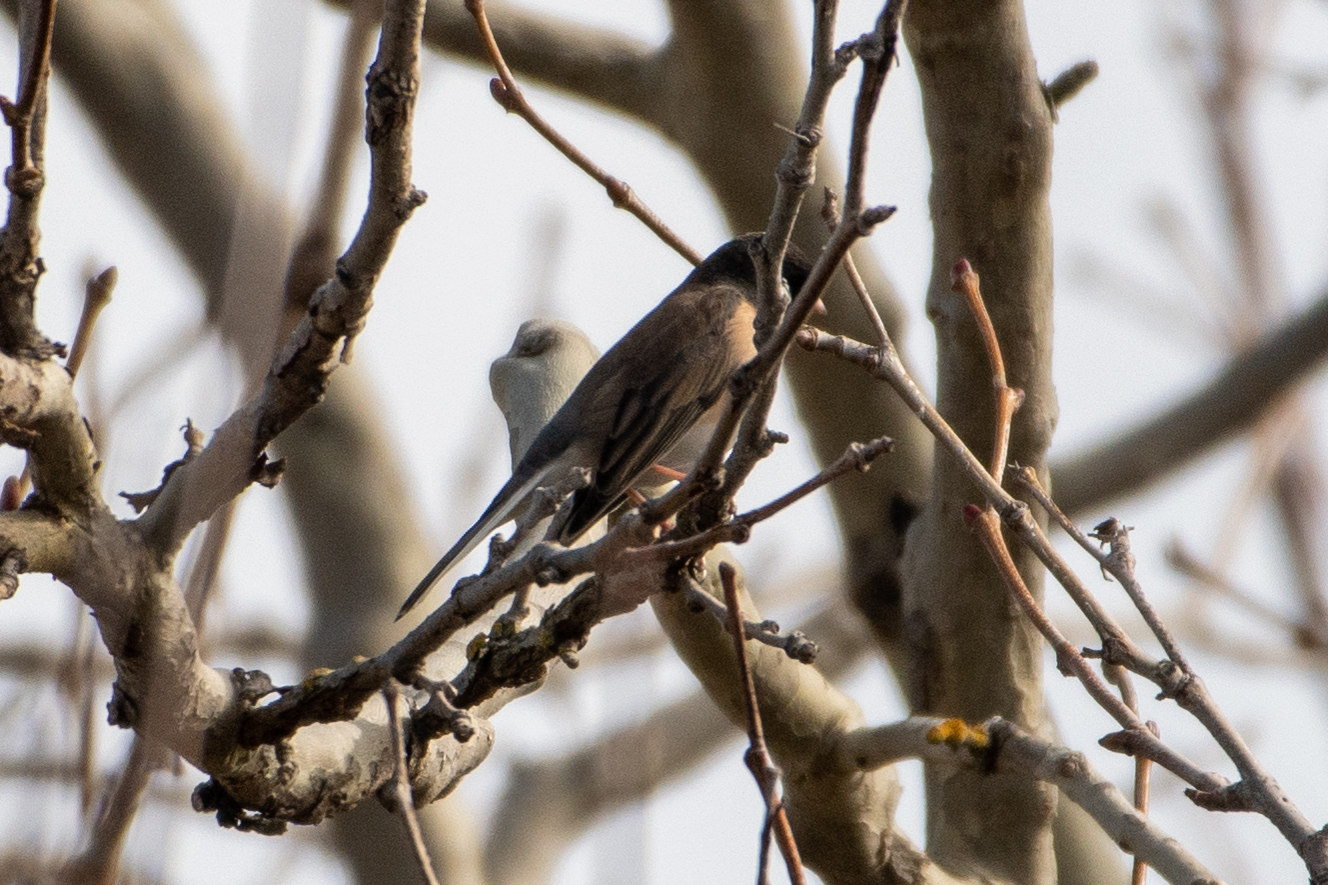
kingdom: Animalia
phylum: Chordata
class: Aves
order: Passeriformes
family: Passerellidae
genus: Junco
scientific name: Junco hyemalis
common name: Dark-eyed junco
